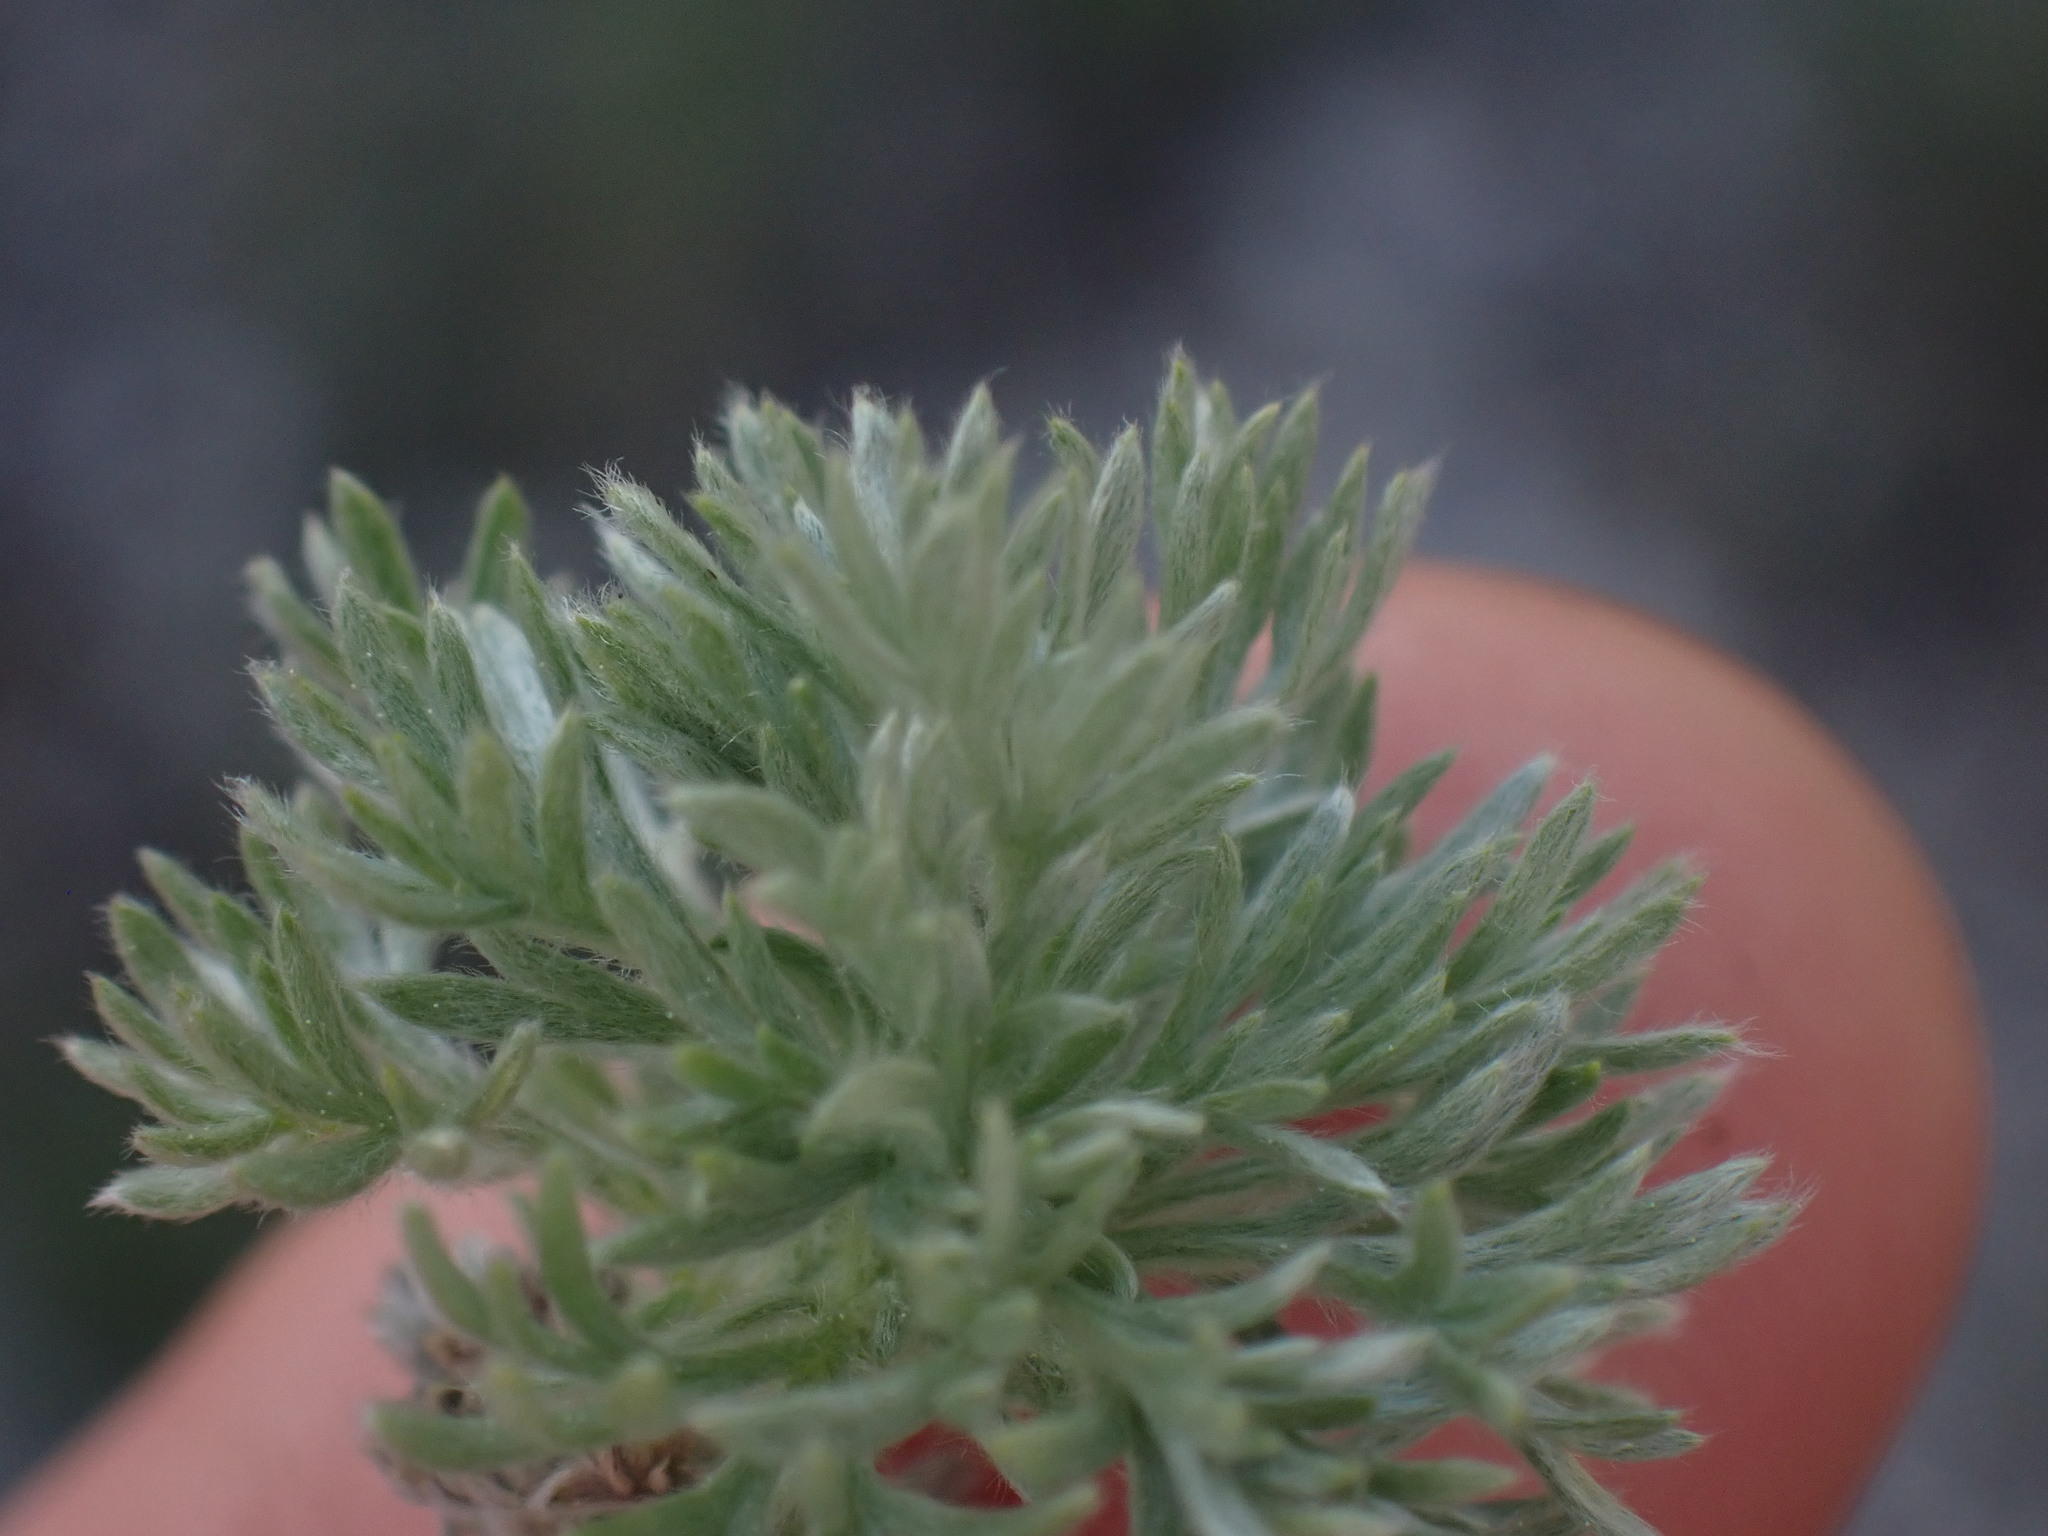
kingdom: Plantae
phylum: Tracheophyta
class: Magnoliopsida
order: Asterales
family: Asteraceae
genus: Artemisia
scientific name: Artemisia frigida
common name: Prairie sagewort
